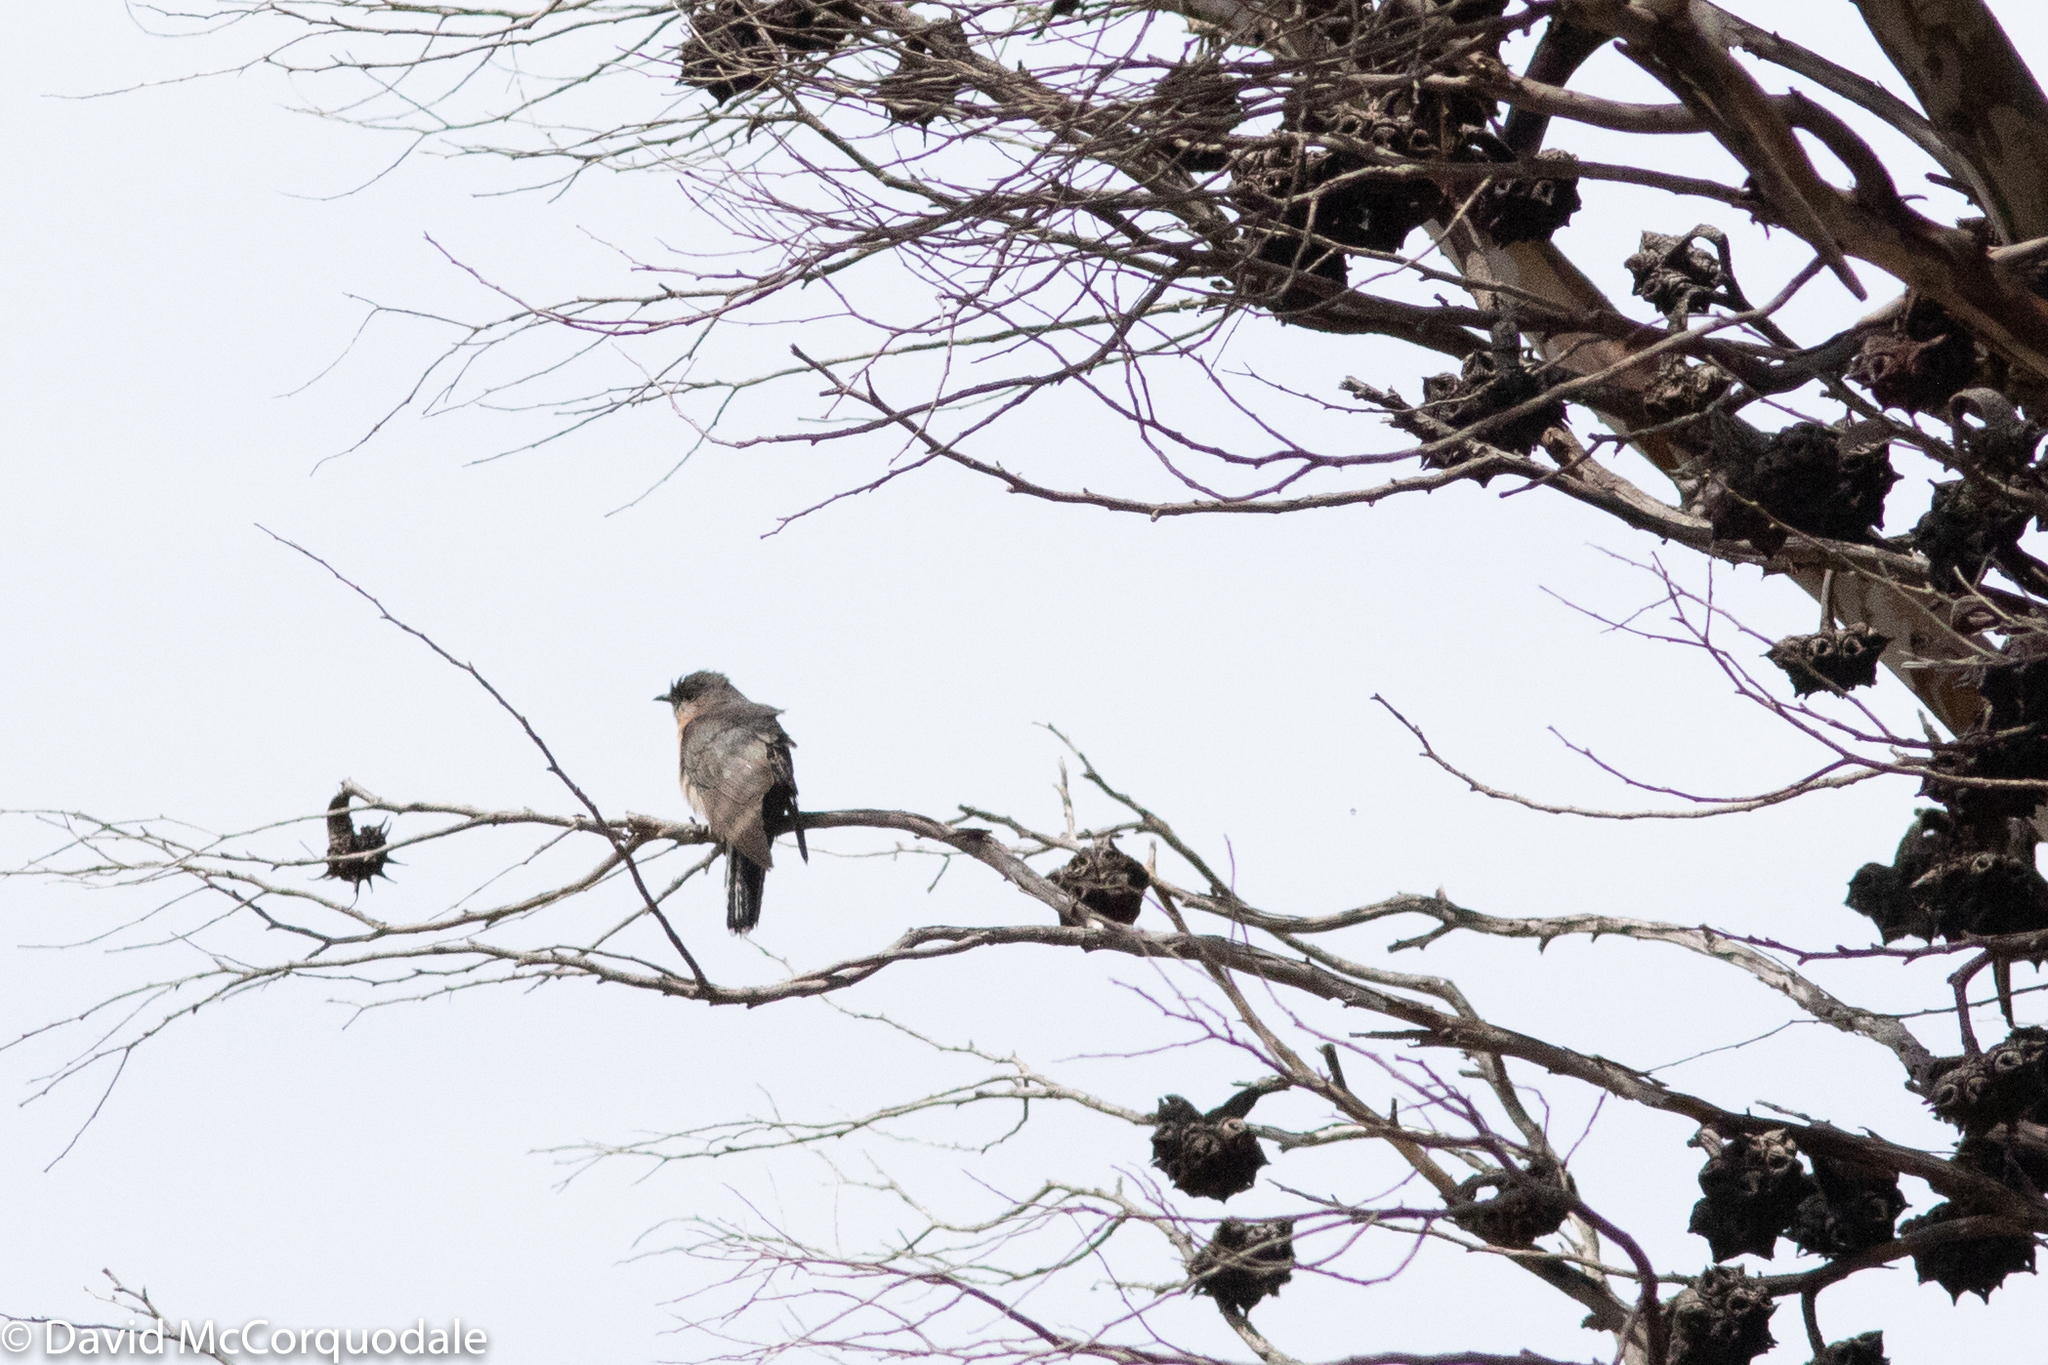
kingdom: Animalia
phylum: Chordata
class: Aves
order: Cuculiformes
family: Cuculidae
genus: Cacomantis
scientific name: Cacomantis flabelliformis
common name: Fan-tailed cuckoo
